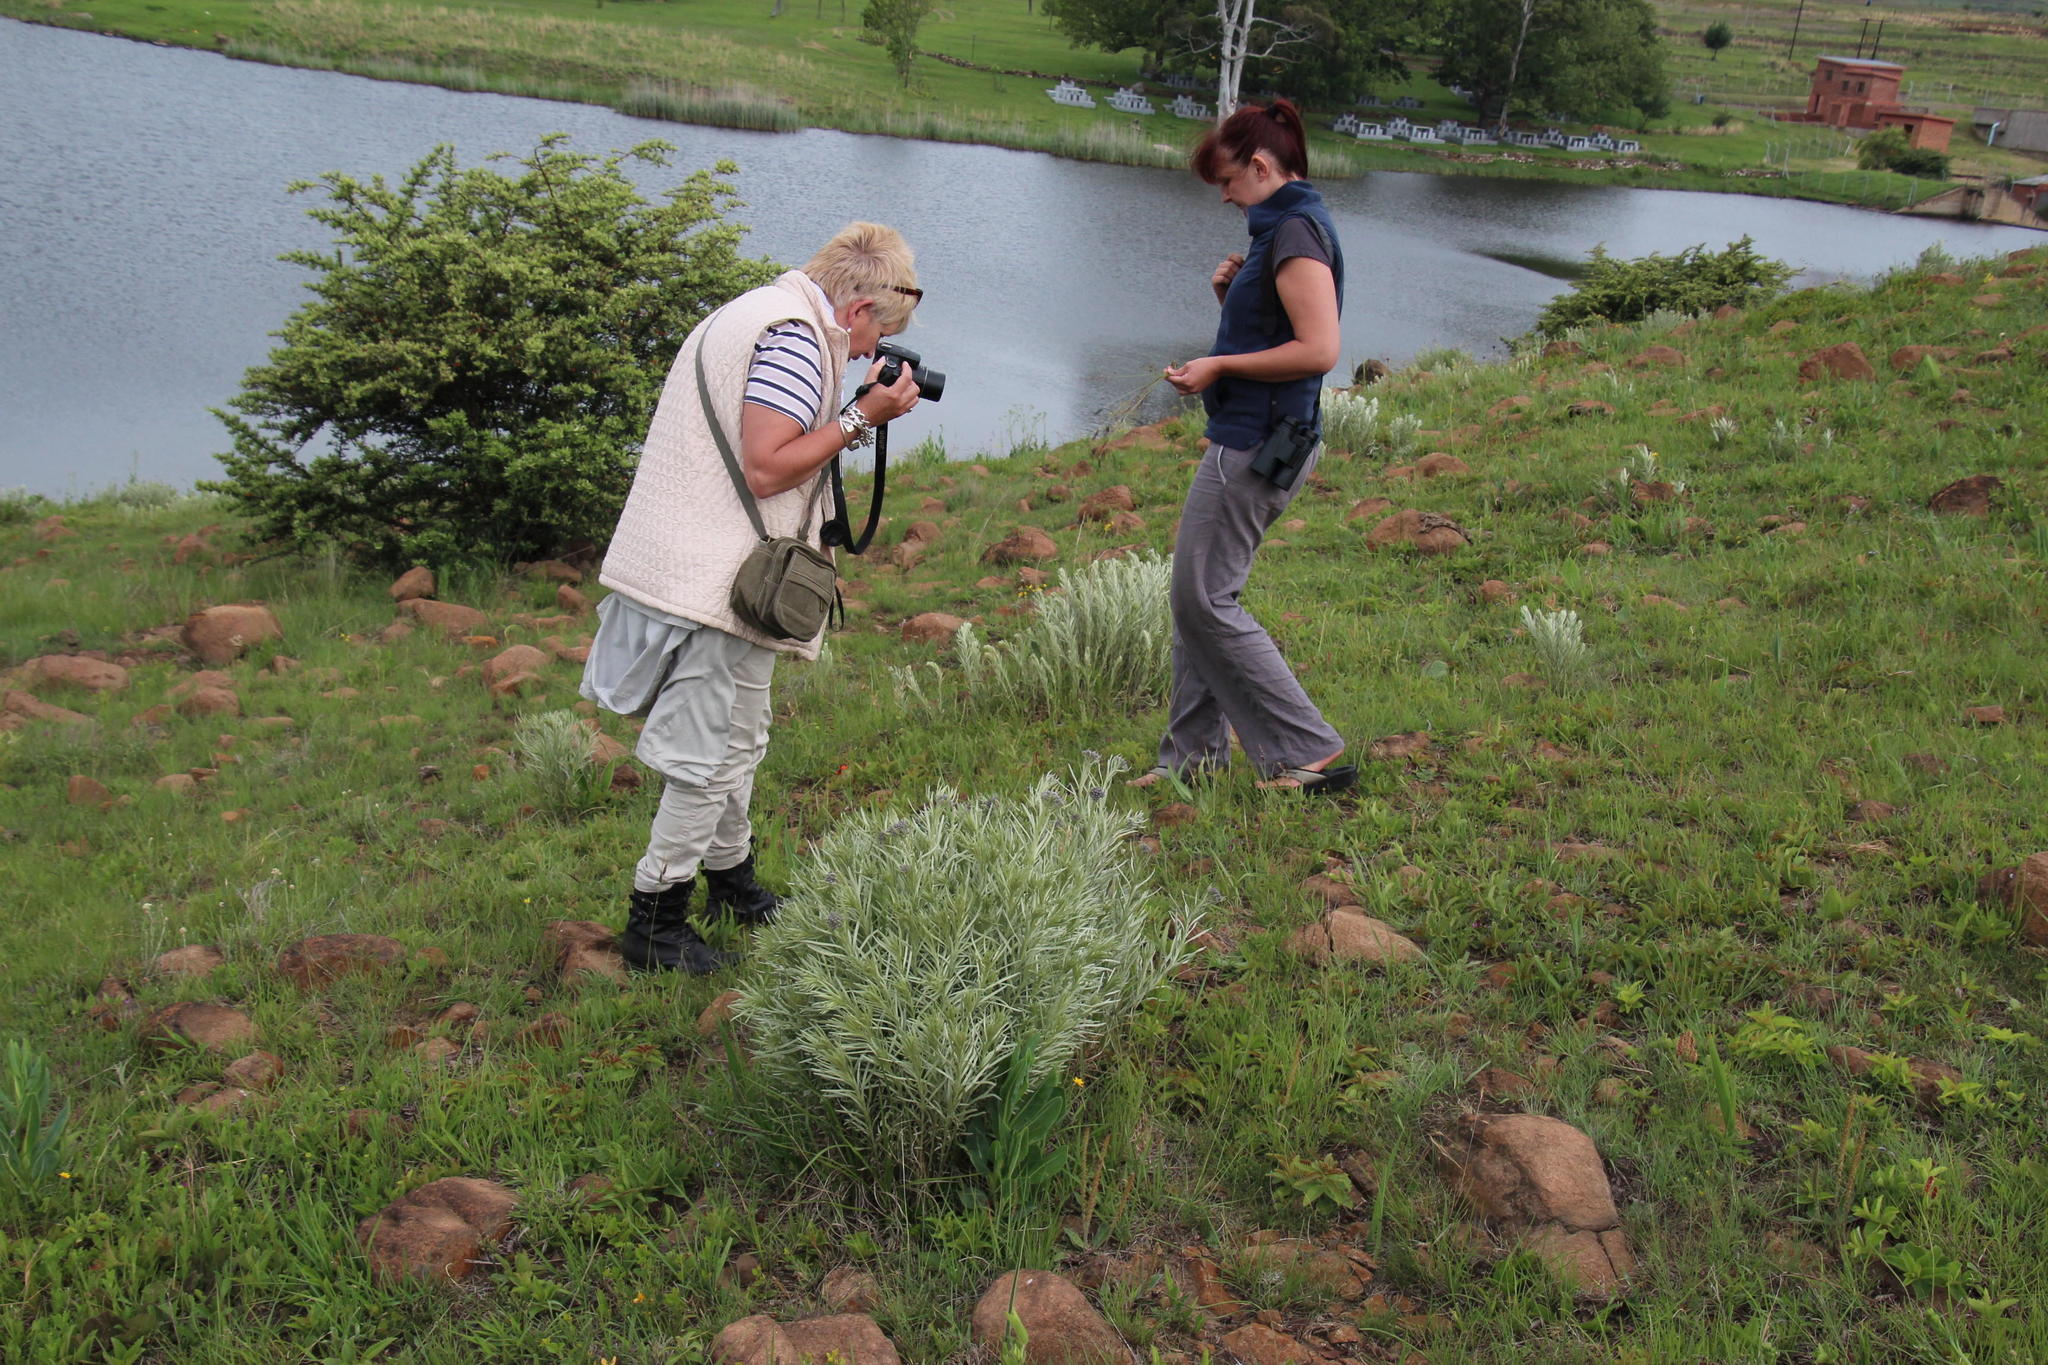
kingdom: Plantae
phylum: Tracheophyta
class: Magnoliopsida
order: Asterales
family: Asteraceae
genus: Hilliardiella
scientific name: Hilliardiella aristata
